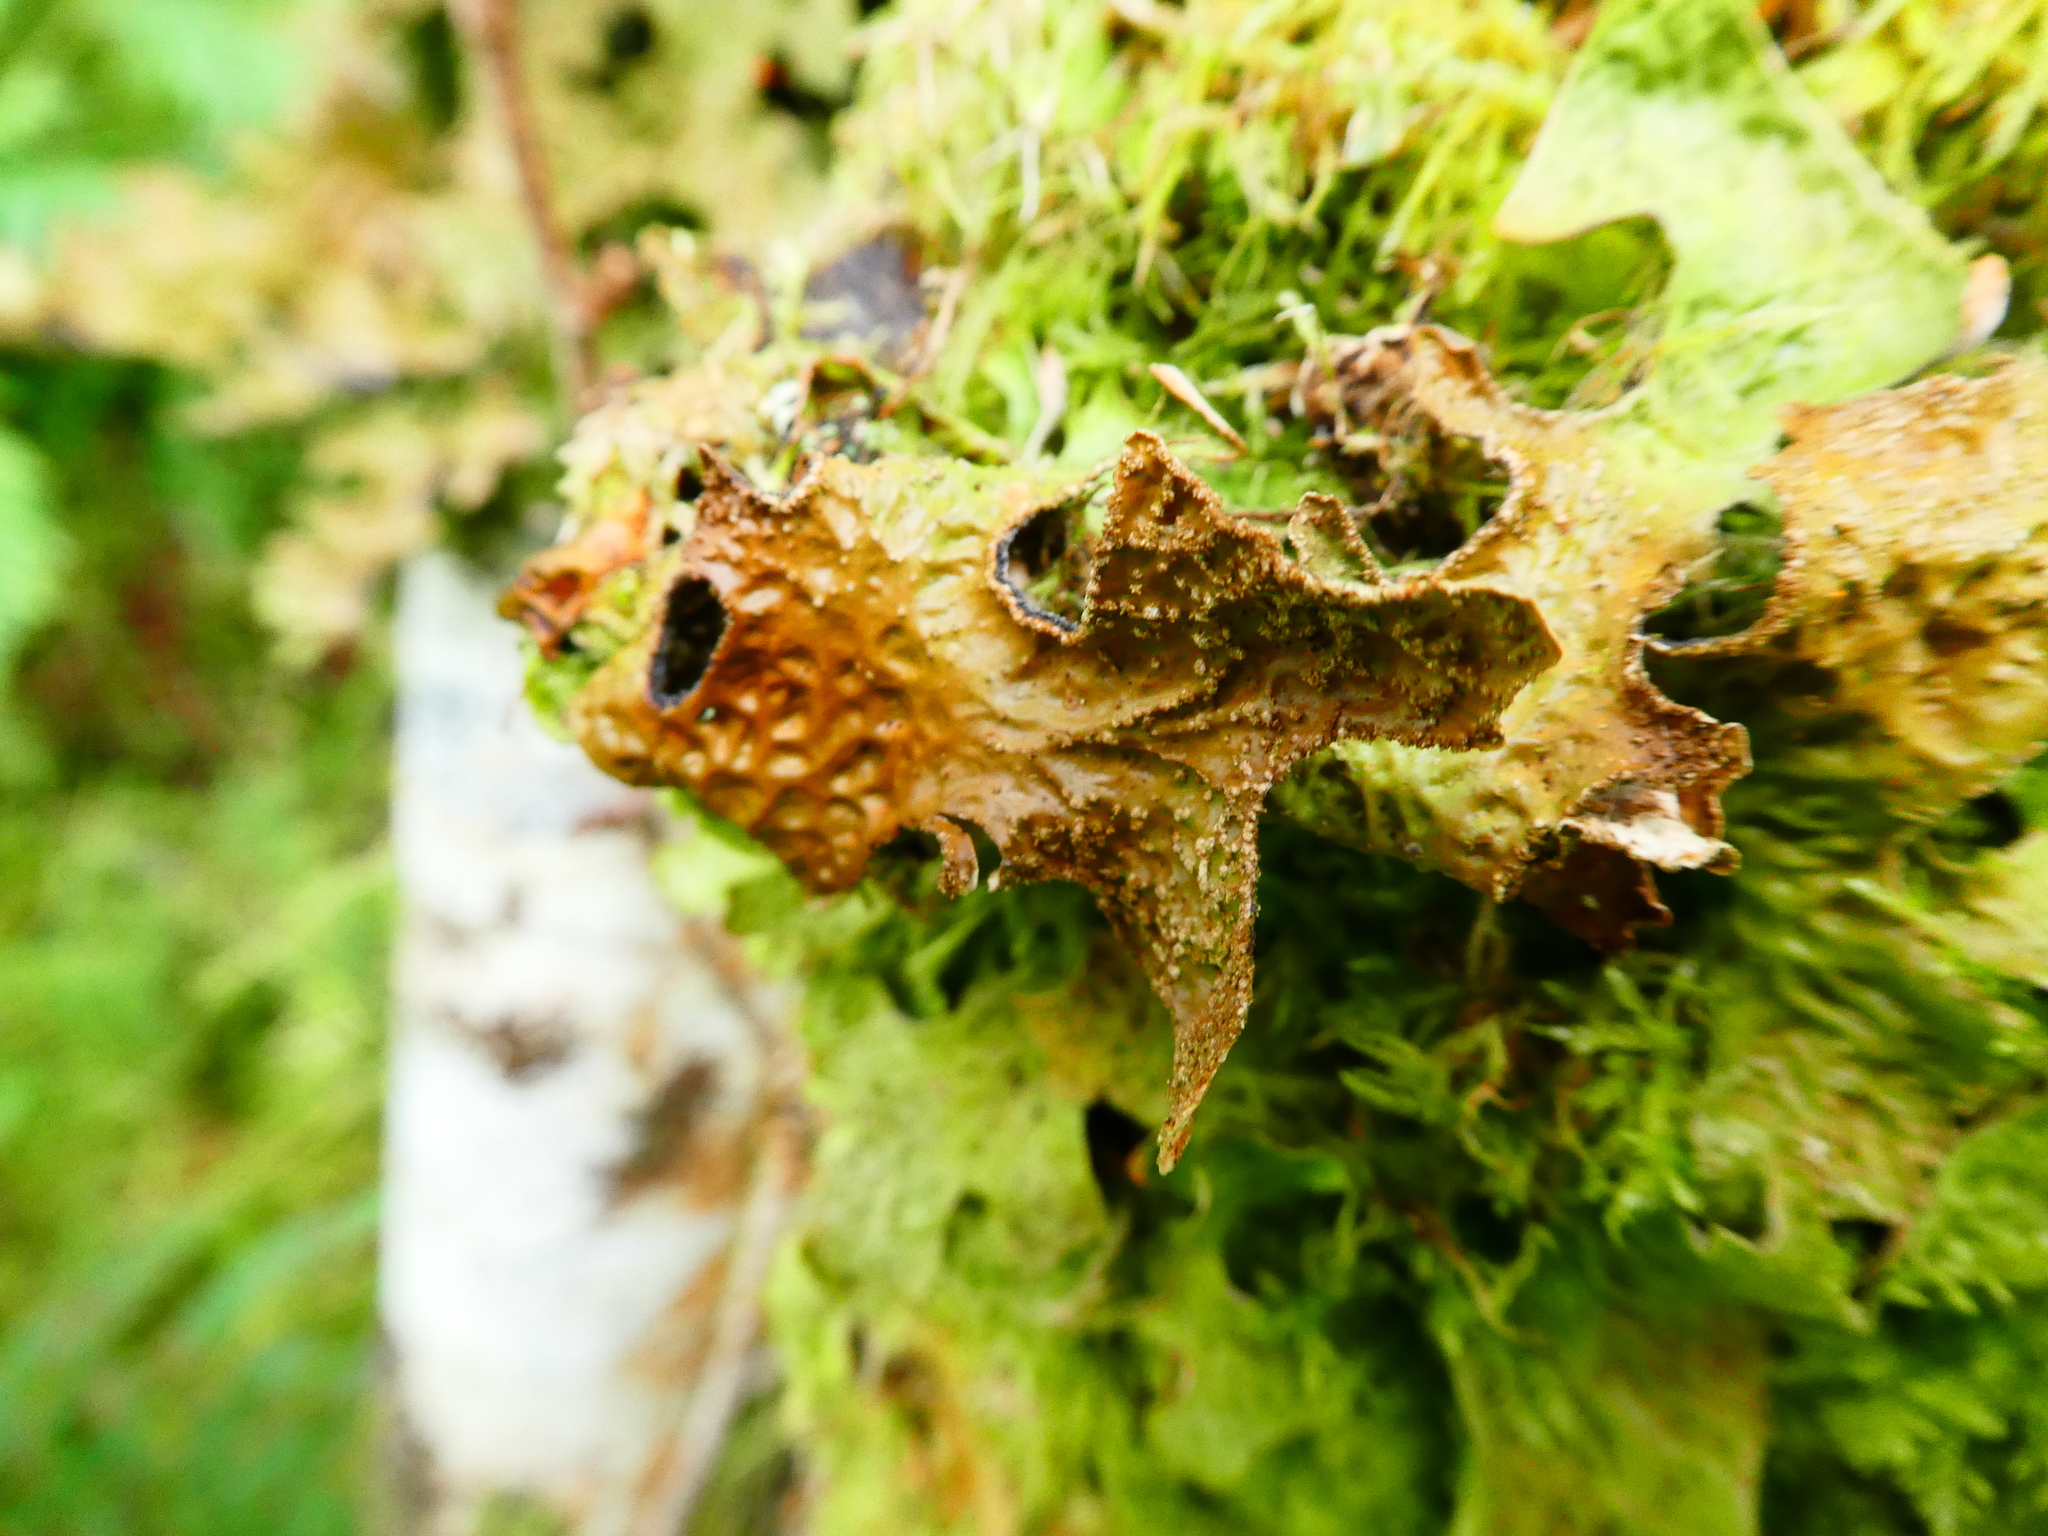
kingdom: Fungi
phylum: Ascomycota
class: Lecanoromycetes
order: Peltigerales
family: Lobariaceae
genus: Lobaria
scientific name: Lobaria pulmonaria
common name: Lungwort
